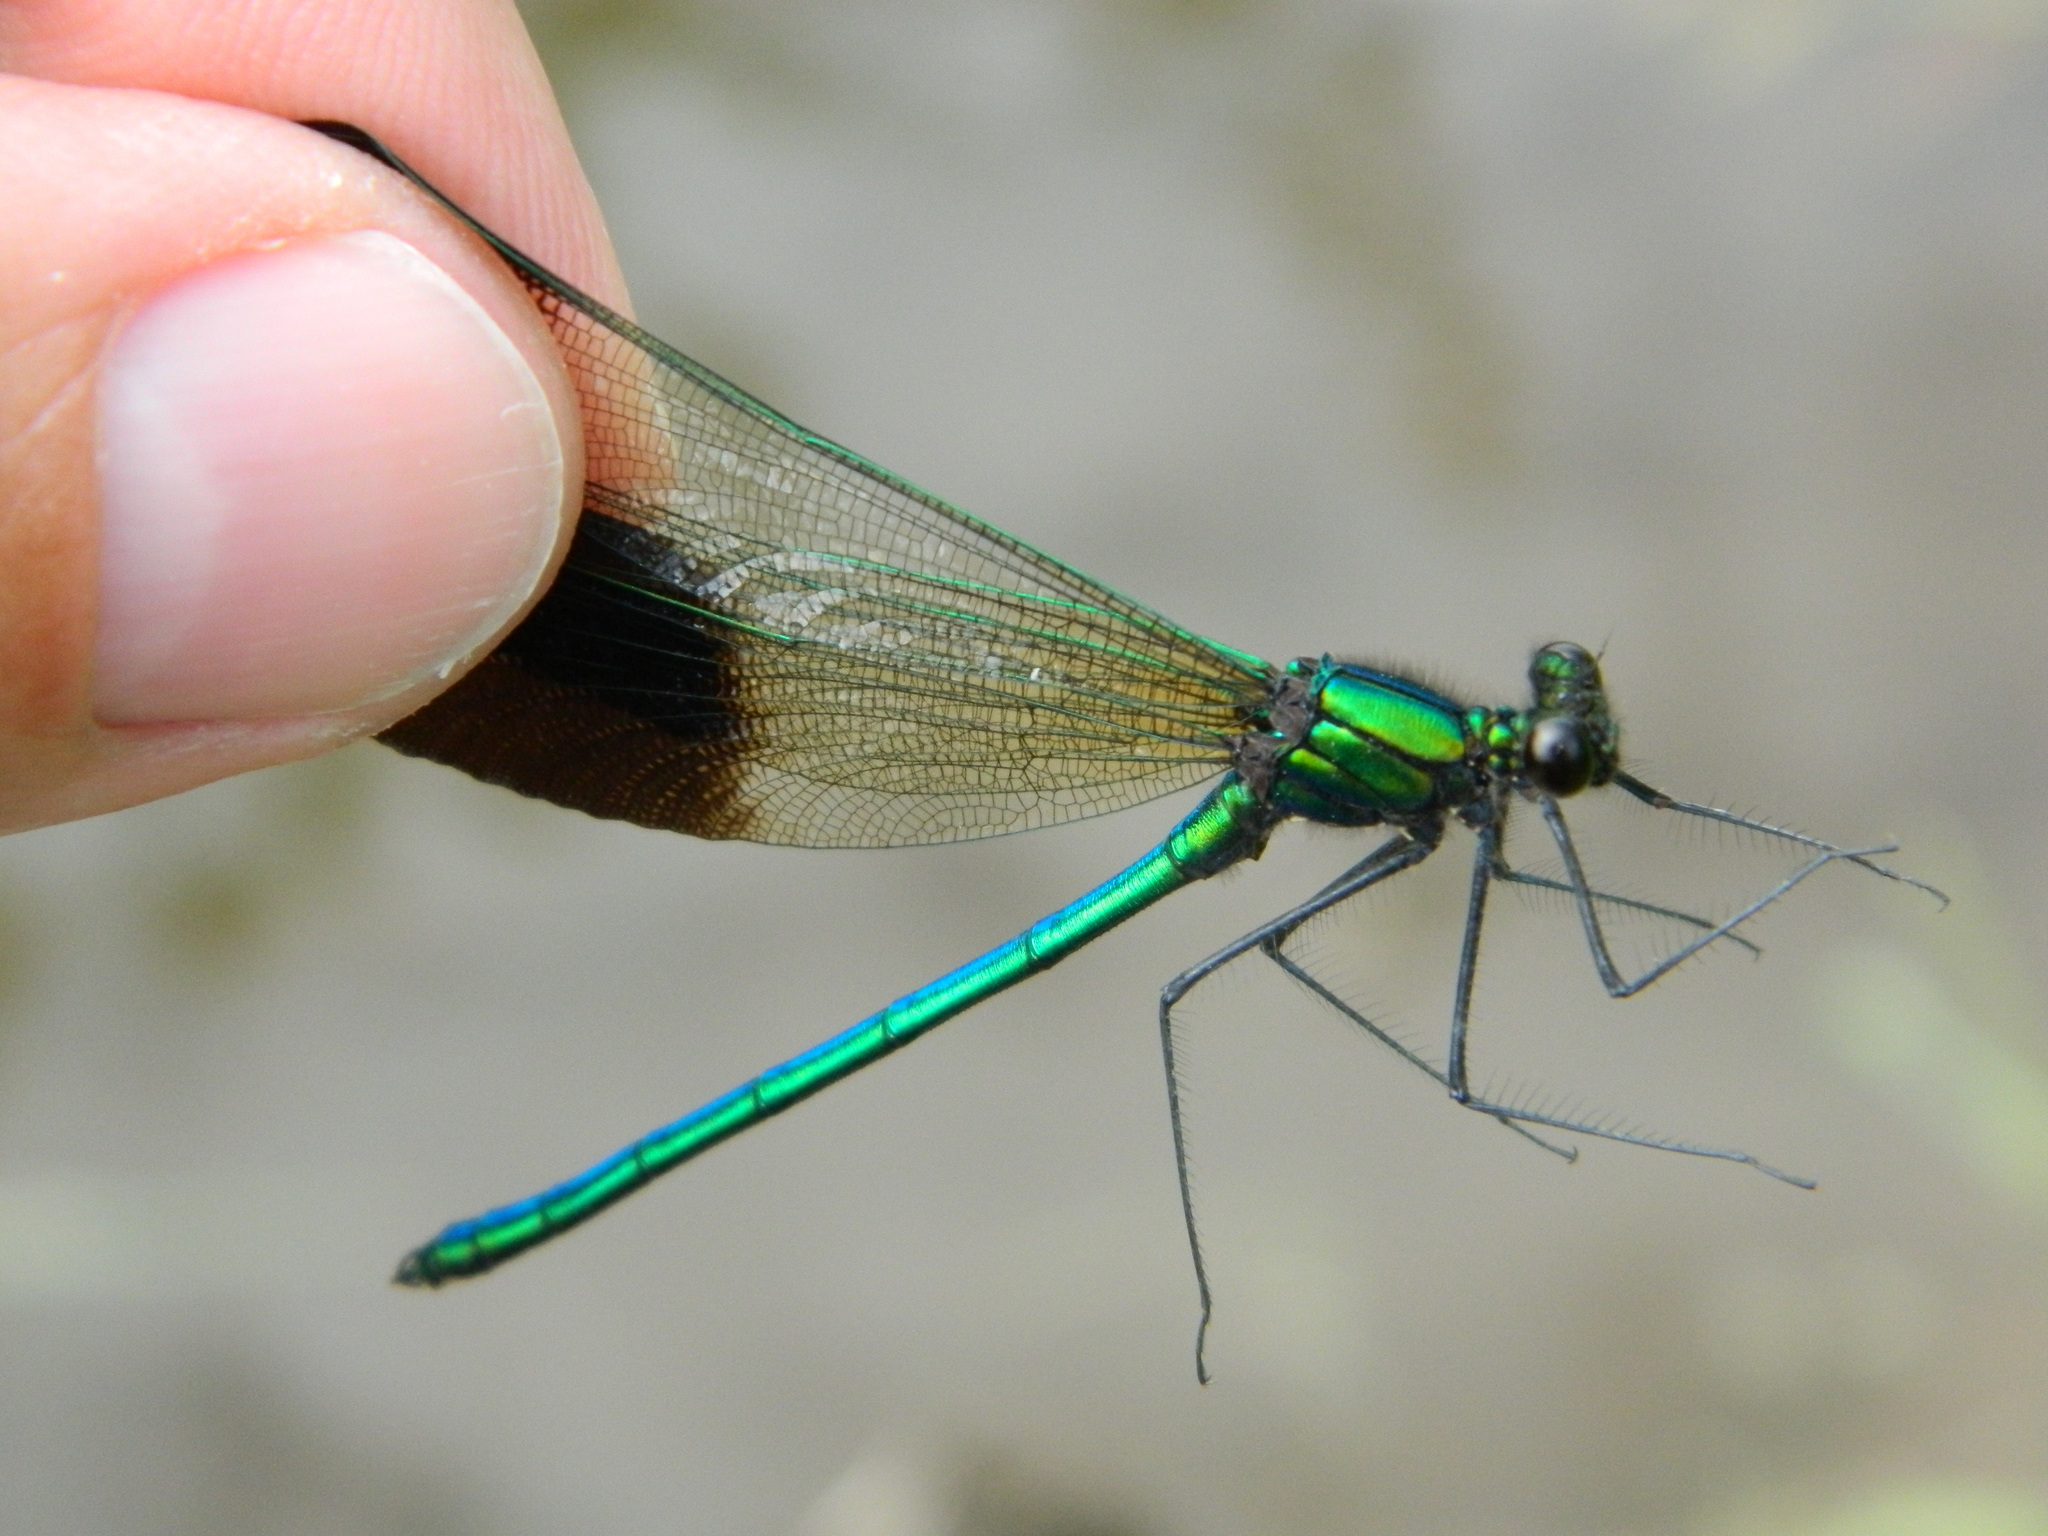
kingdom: Animalia
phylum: Arthropoda
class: Insecta
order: Odonata
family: Calopterygidae
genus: Calopteryx
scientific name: Calopteryx aequabilis
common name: River jewelwing
